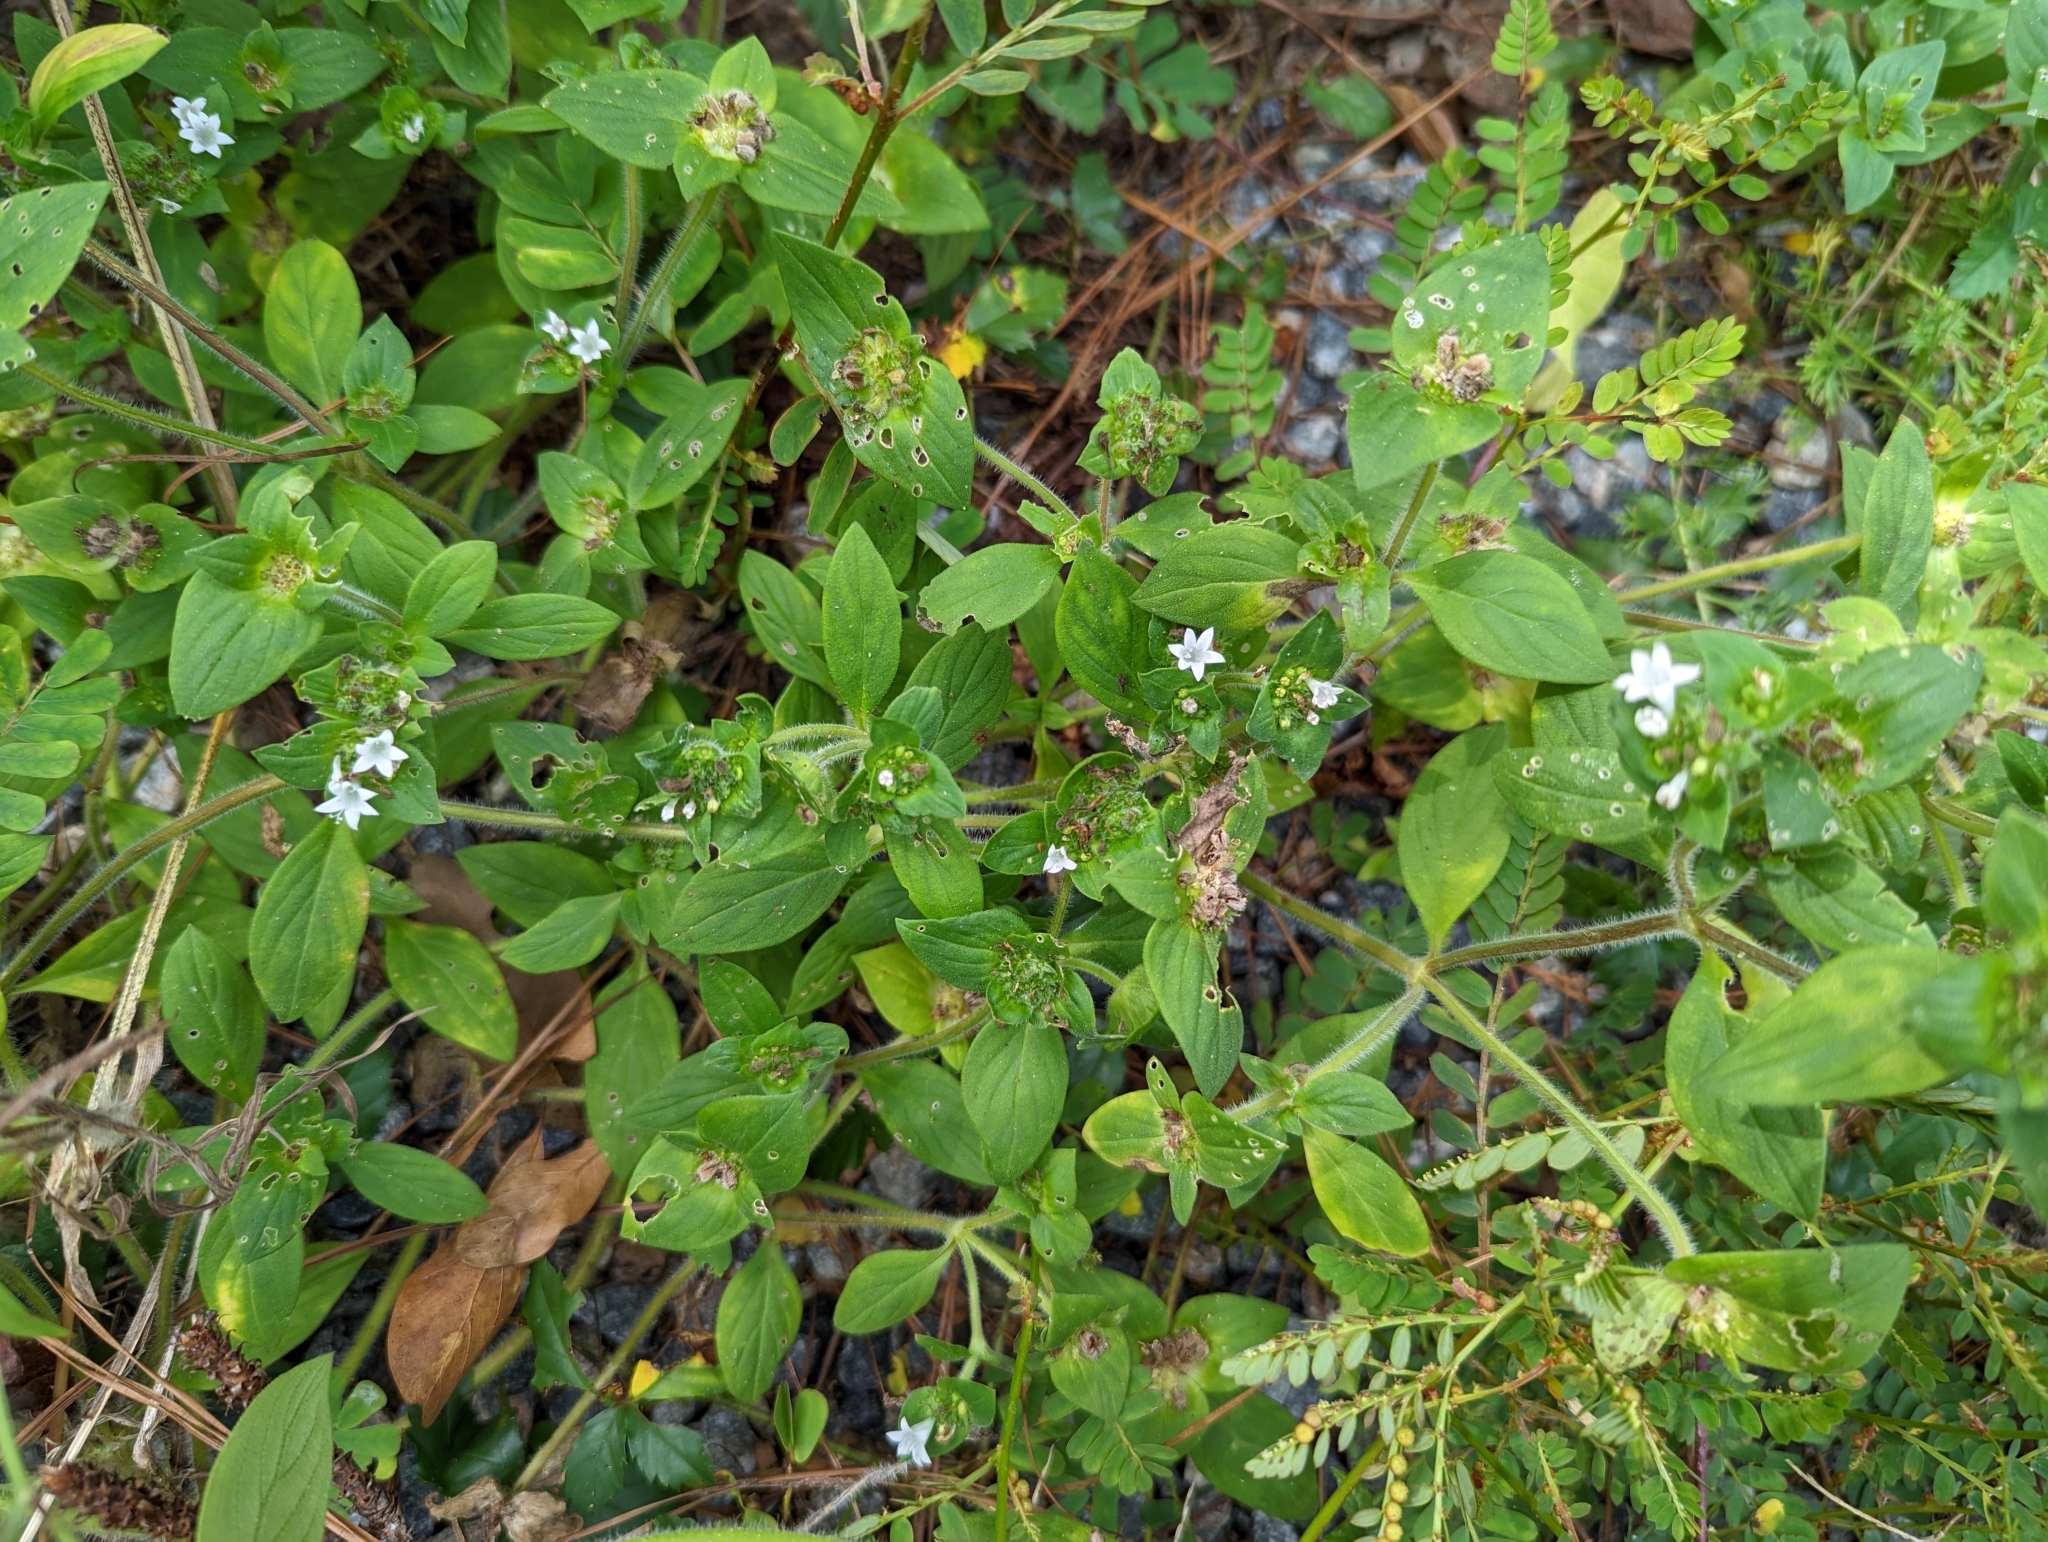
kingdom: Plantae
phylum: Tracheophyta
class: Magnoliopsida
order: Gentianales
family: Rubiaceae
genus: Richardia
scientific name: Richardia scabra
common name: Rough mexican clover
